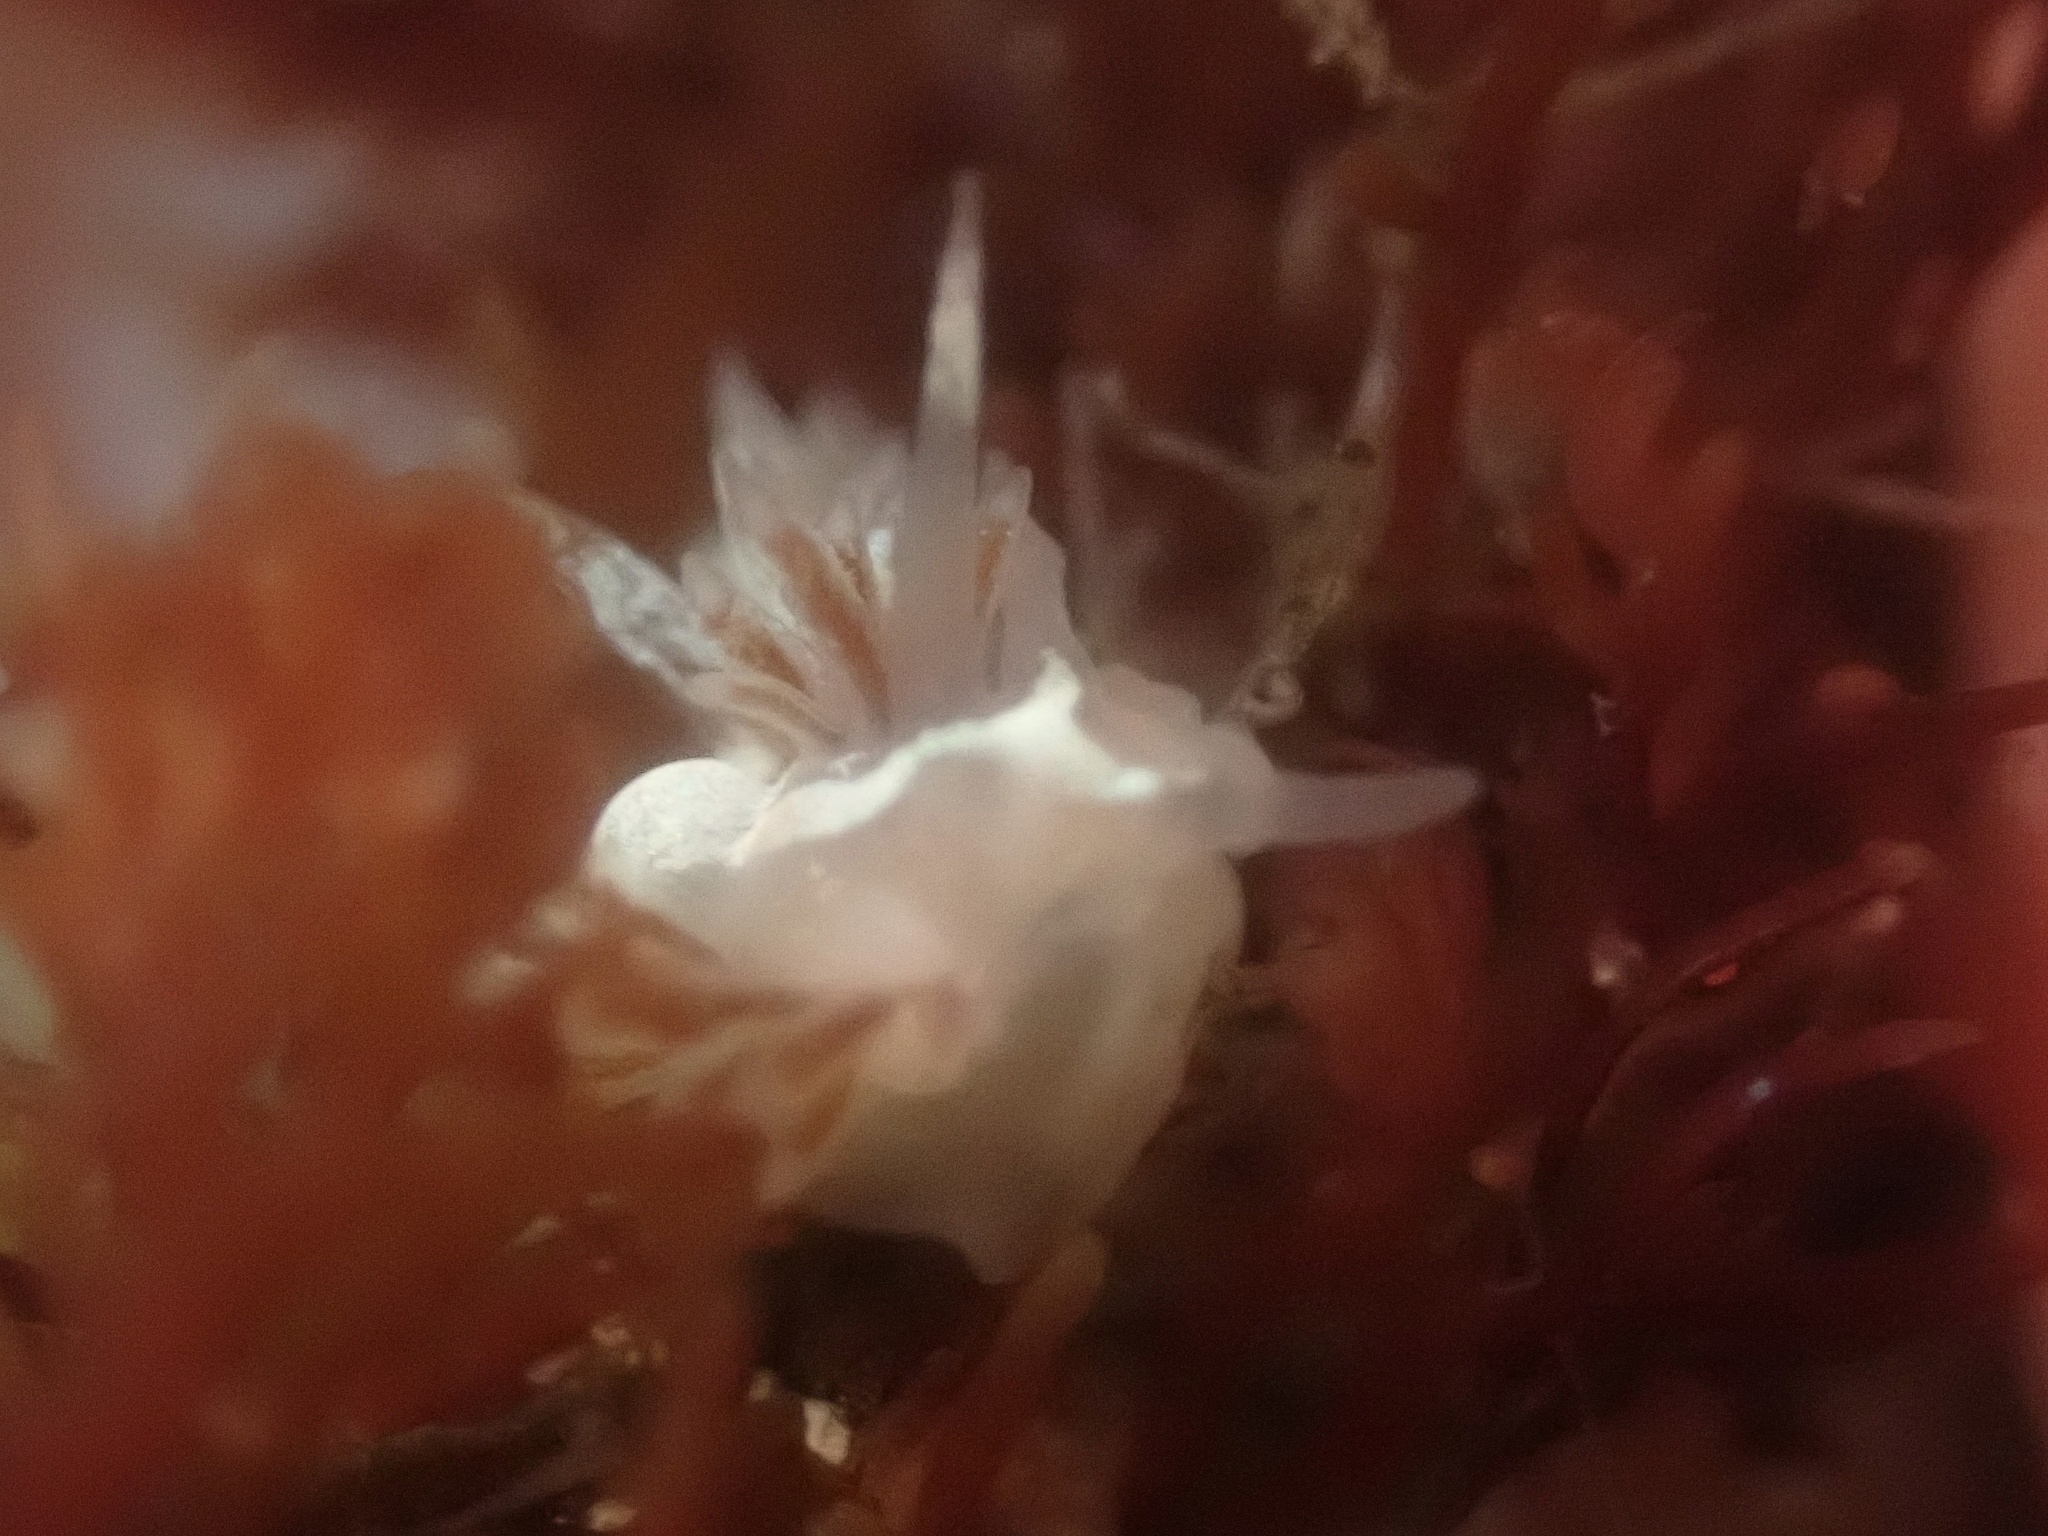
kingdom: Animalia
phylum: Mollusca
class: Gastropoda
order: Nudibranchia
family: Coryphellidae
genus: Coryphella
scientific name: Coryphella cooperi
